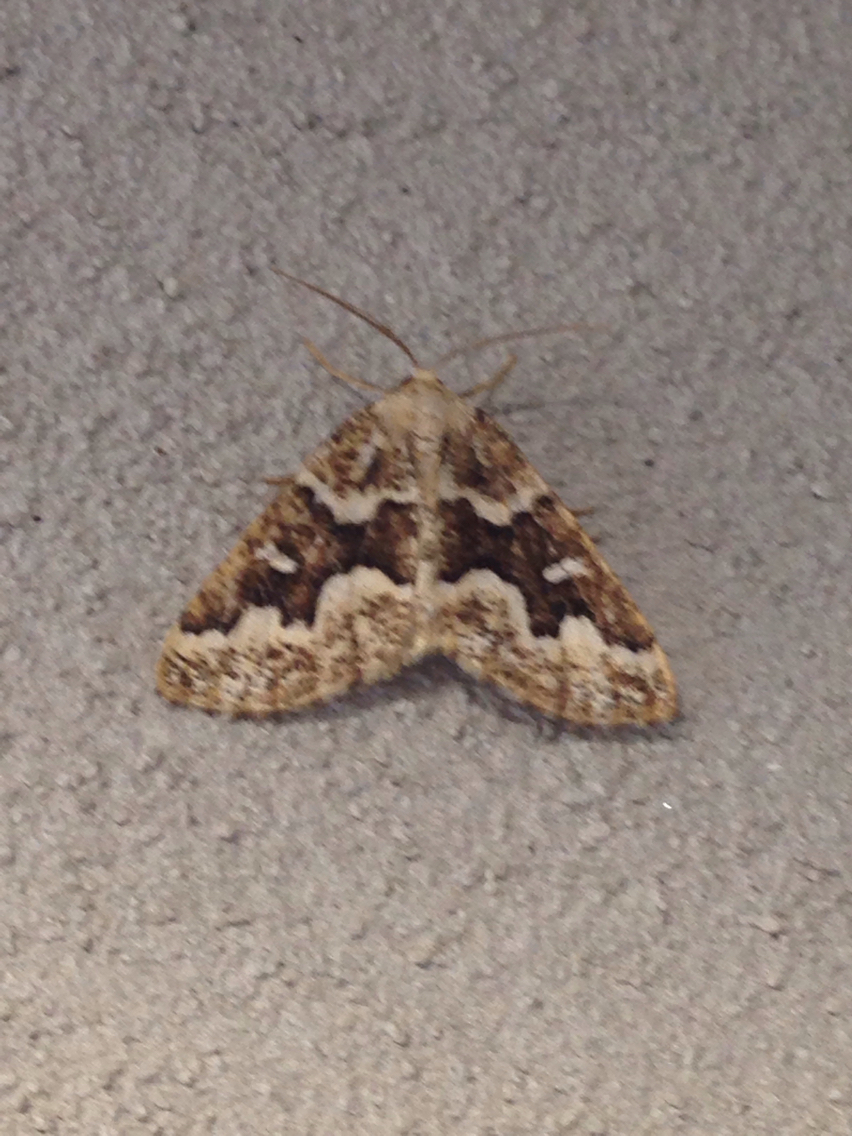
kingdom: Animalia
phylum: Arthropoda
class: Insecta
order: Lepidoptera
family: Geometridae
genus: Caripeta
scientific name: Caripeta divisata
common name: Gray spruce looper
